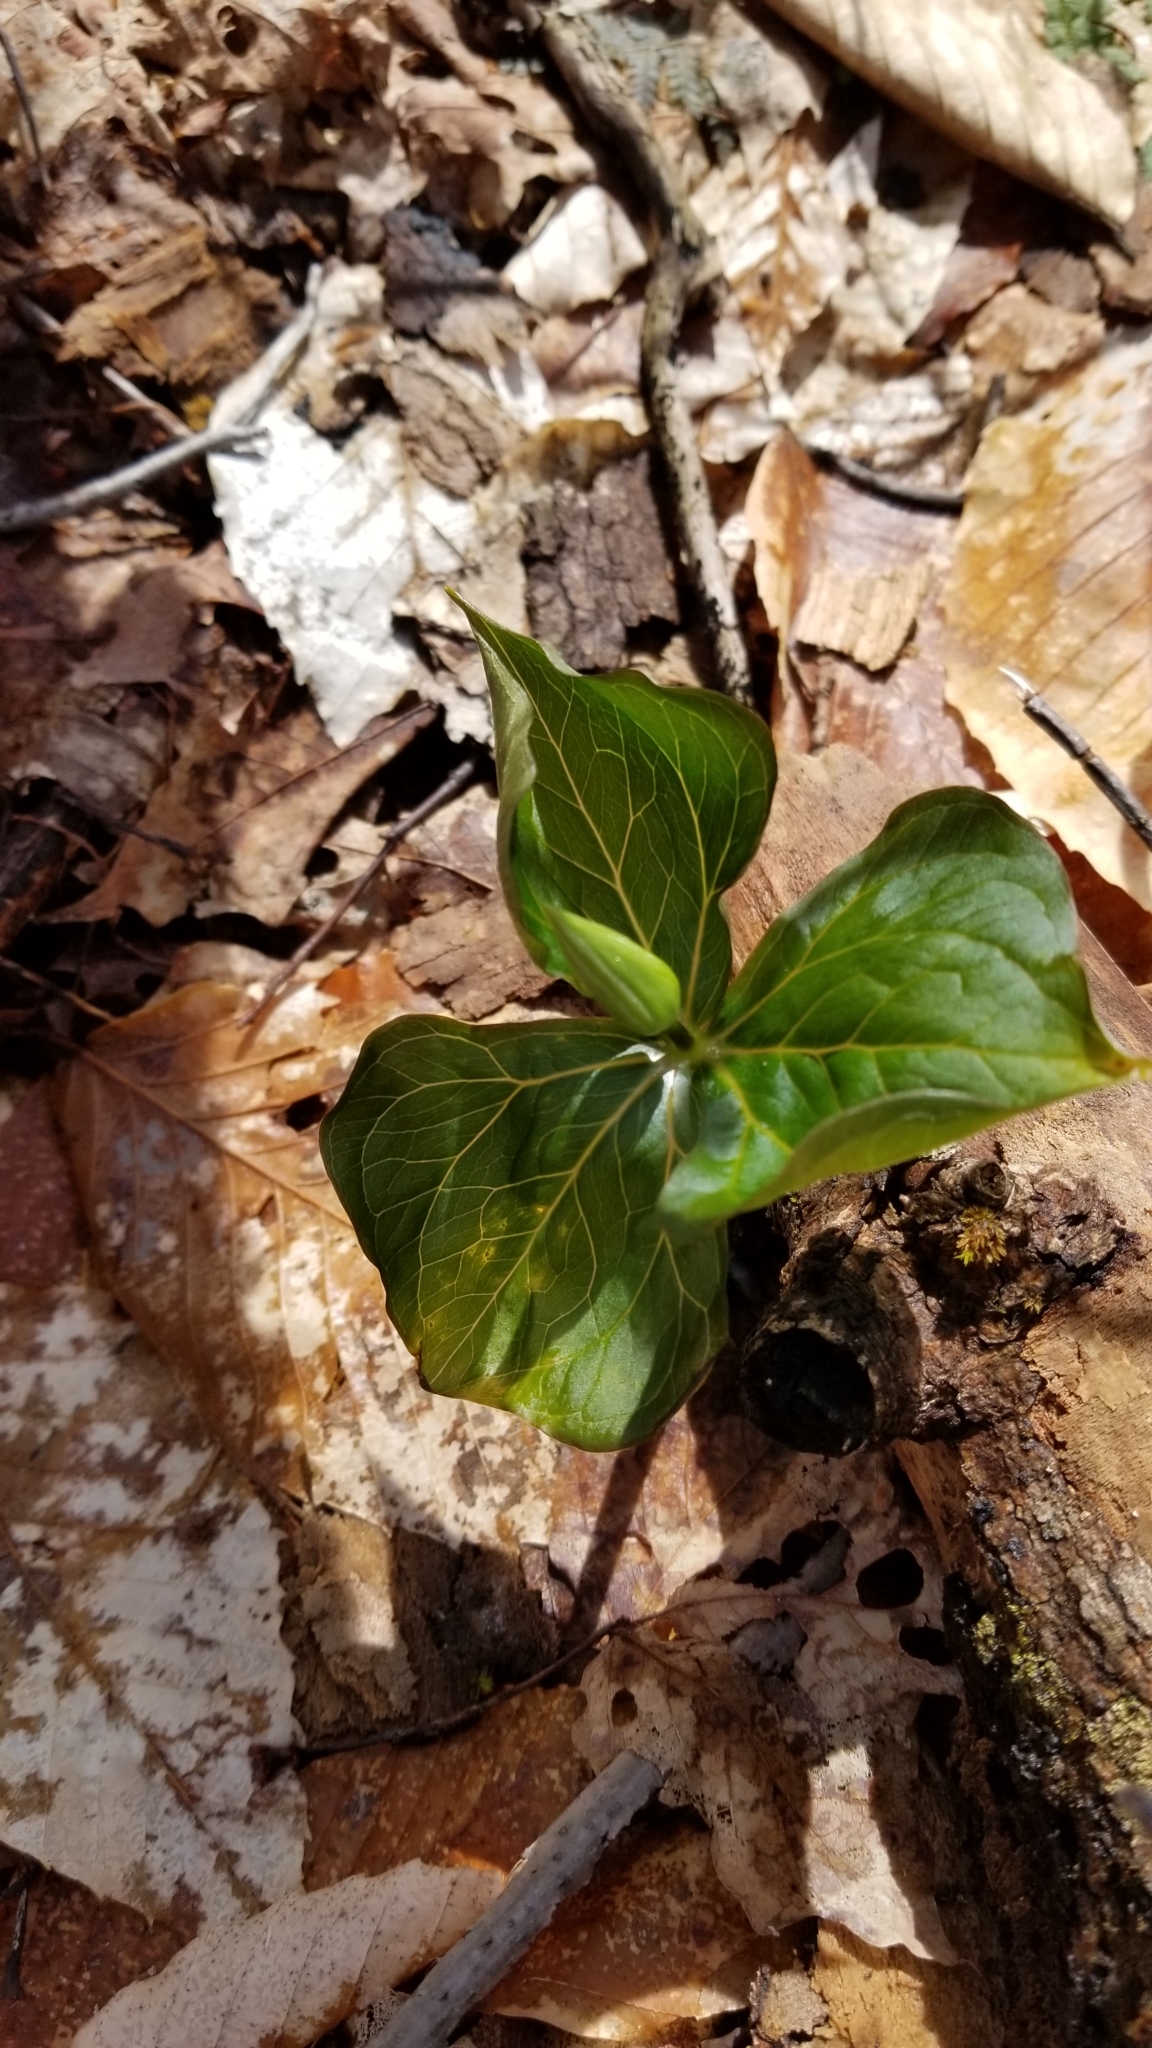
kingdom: Plantae
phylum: Tracheophyta
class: Liliopsida
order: Liliales
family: Melanthiaceae
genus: Trillium
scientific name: Trillium erectum
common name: Purple trillium
